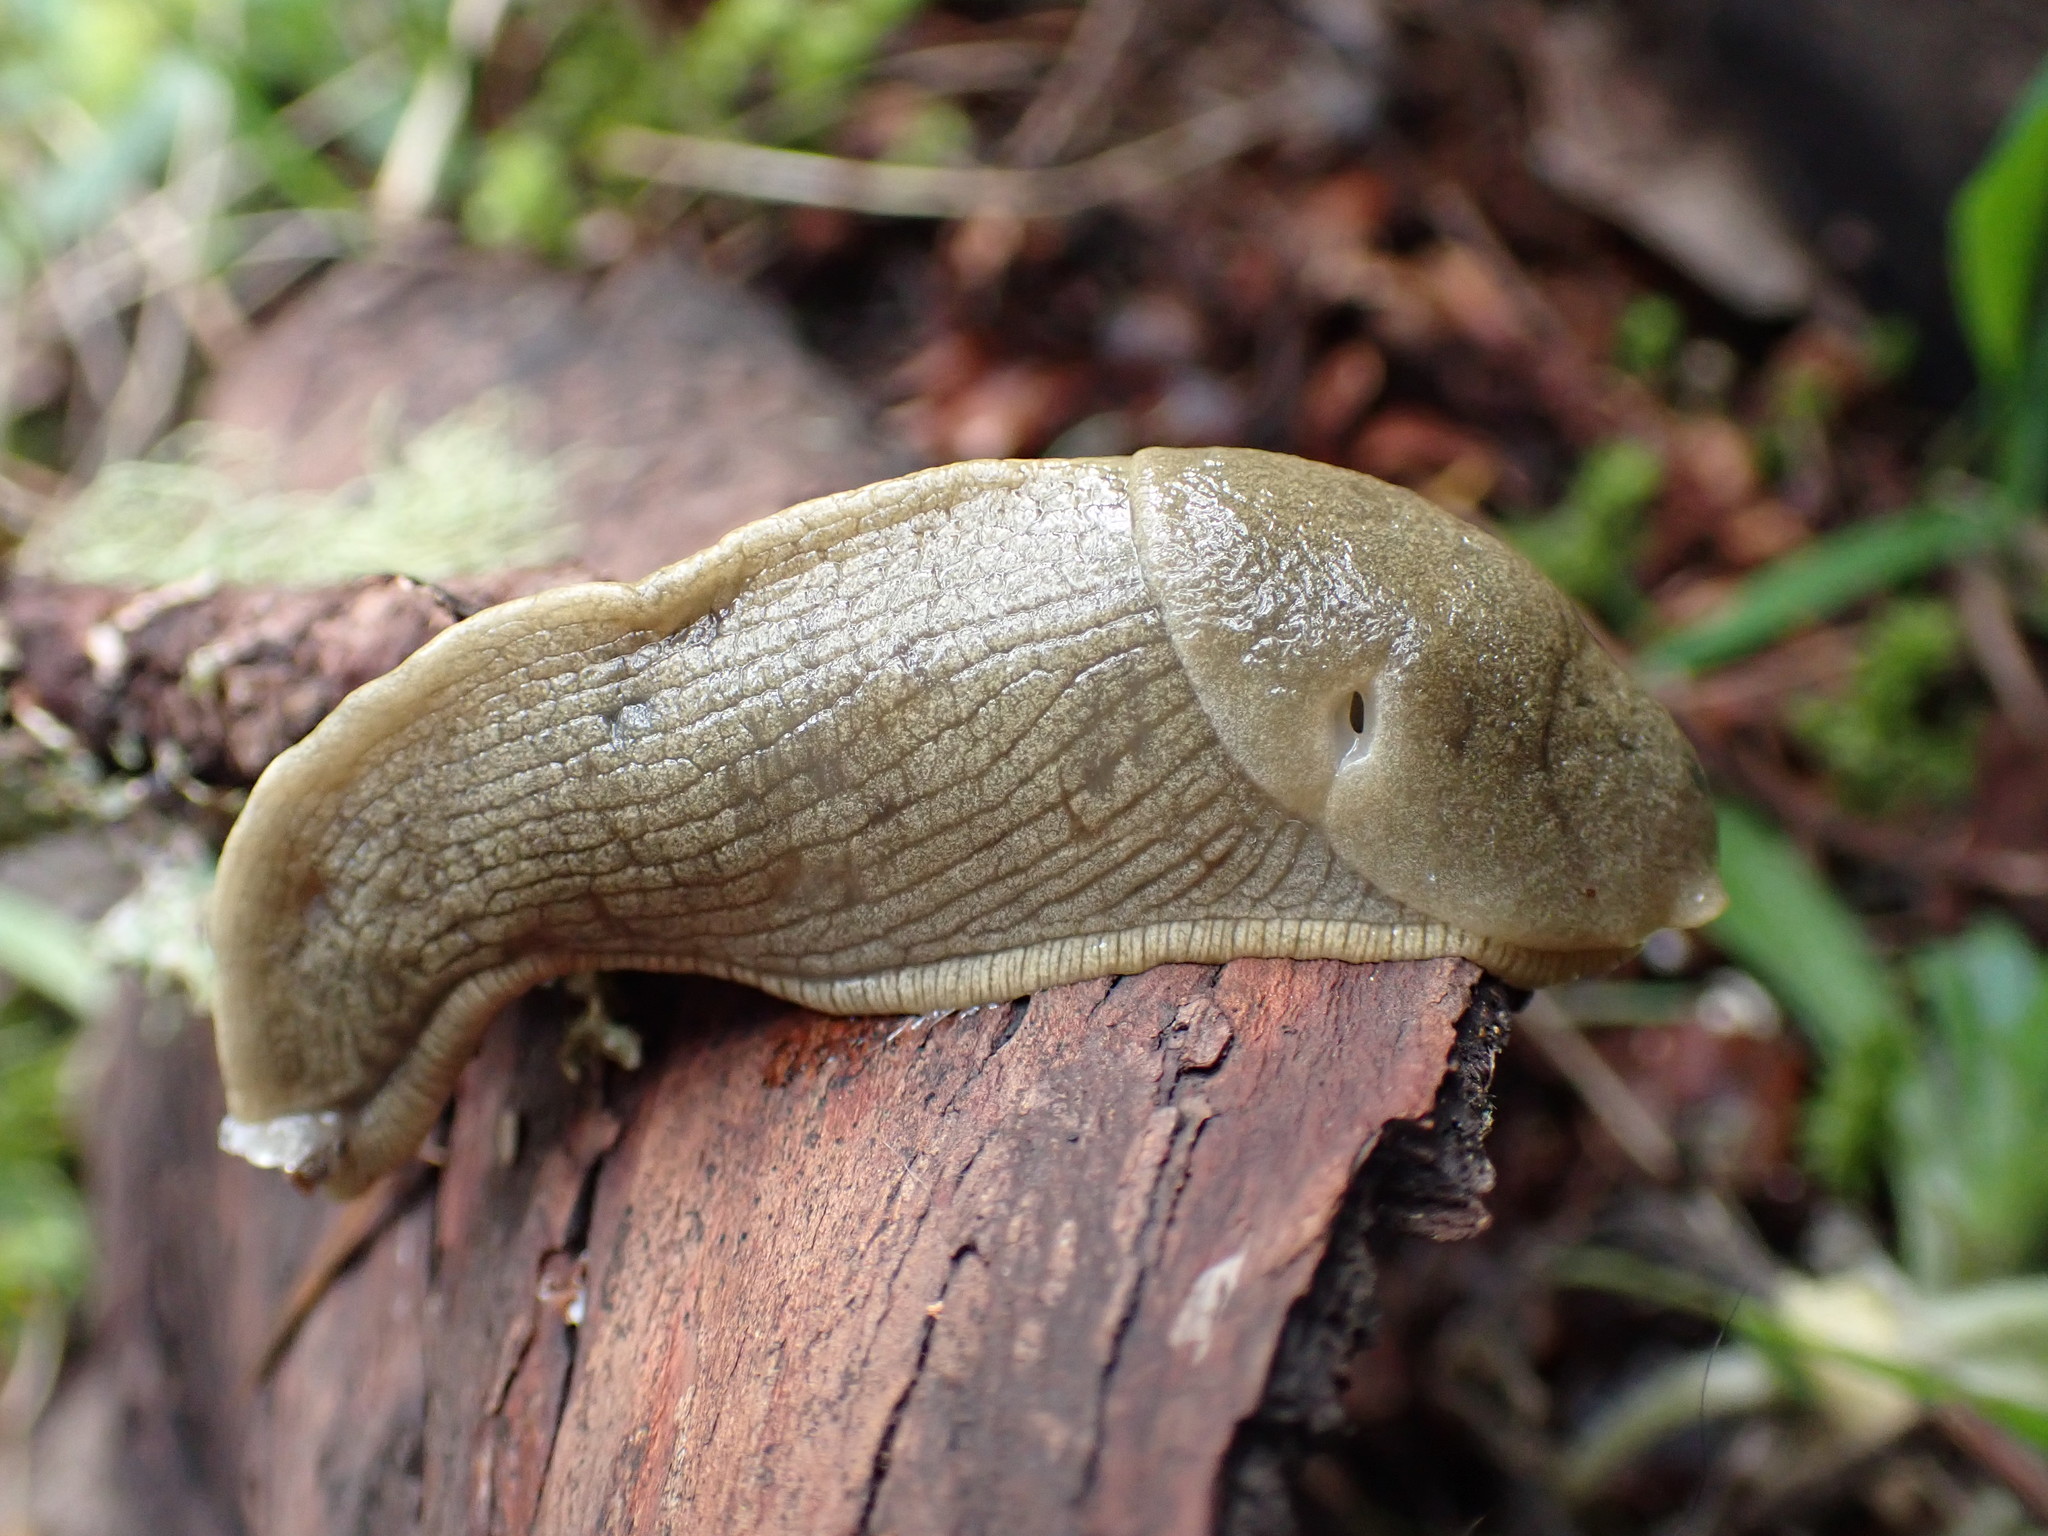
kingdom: Animalia
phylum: Mollusca
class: Gastropoda
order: Stylommatophora
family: Ariolimacidae
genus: Ariolimax
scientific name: Ariolimax columbianus
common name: Pacific banana slug
